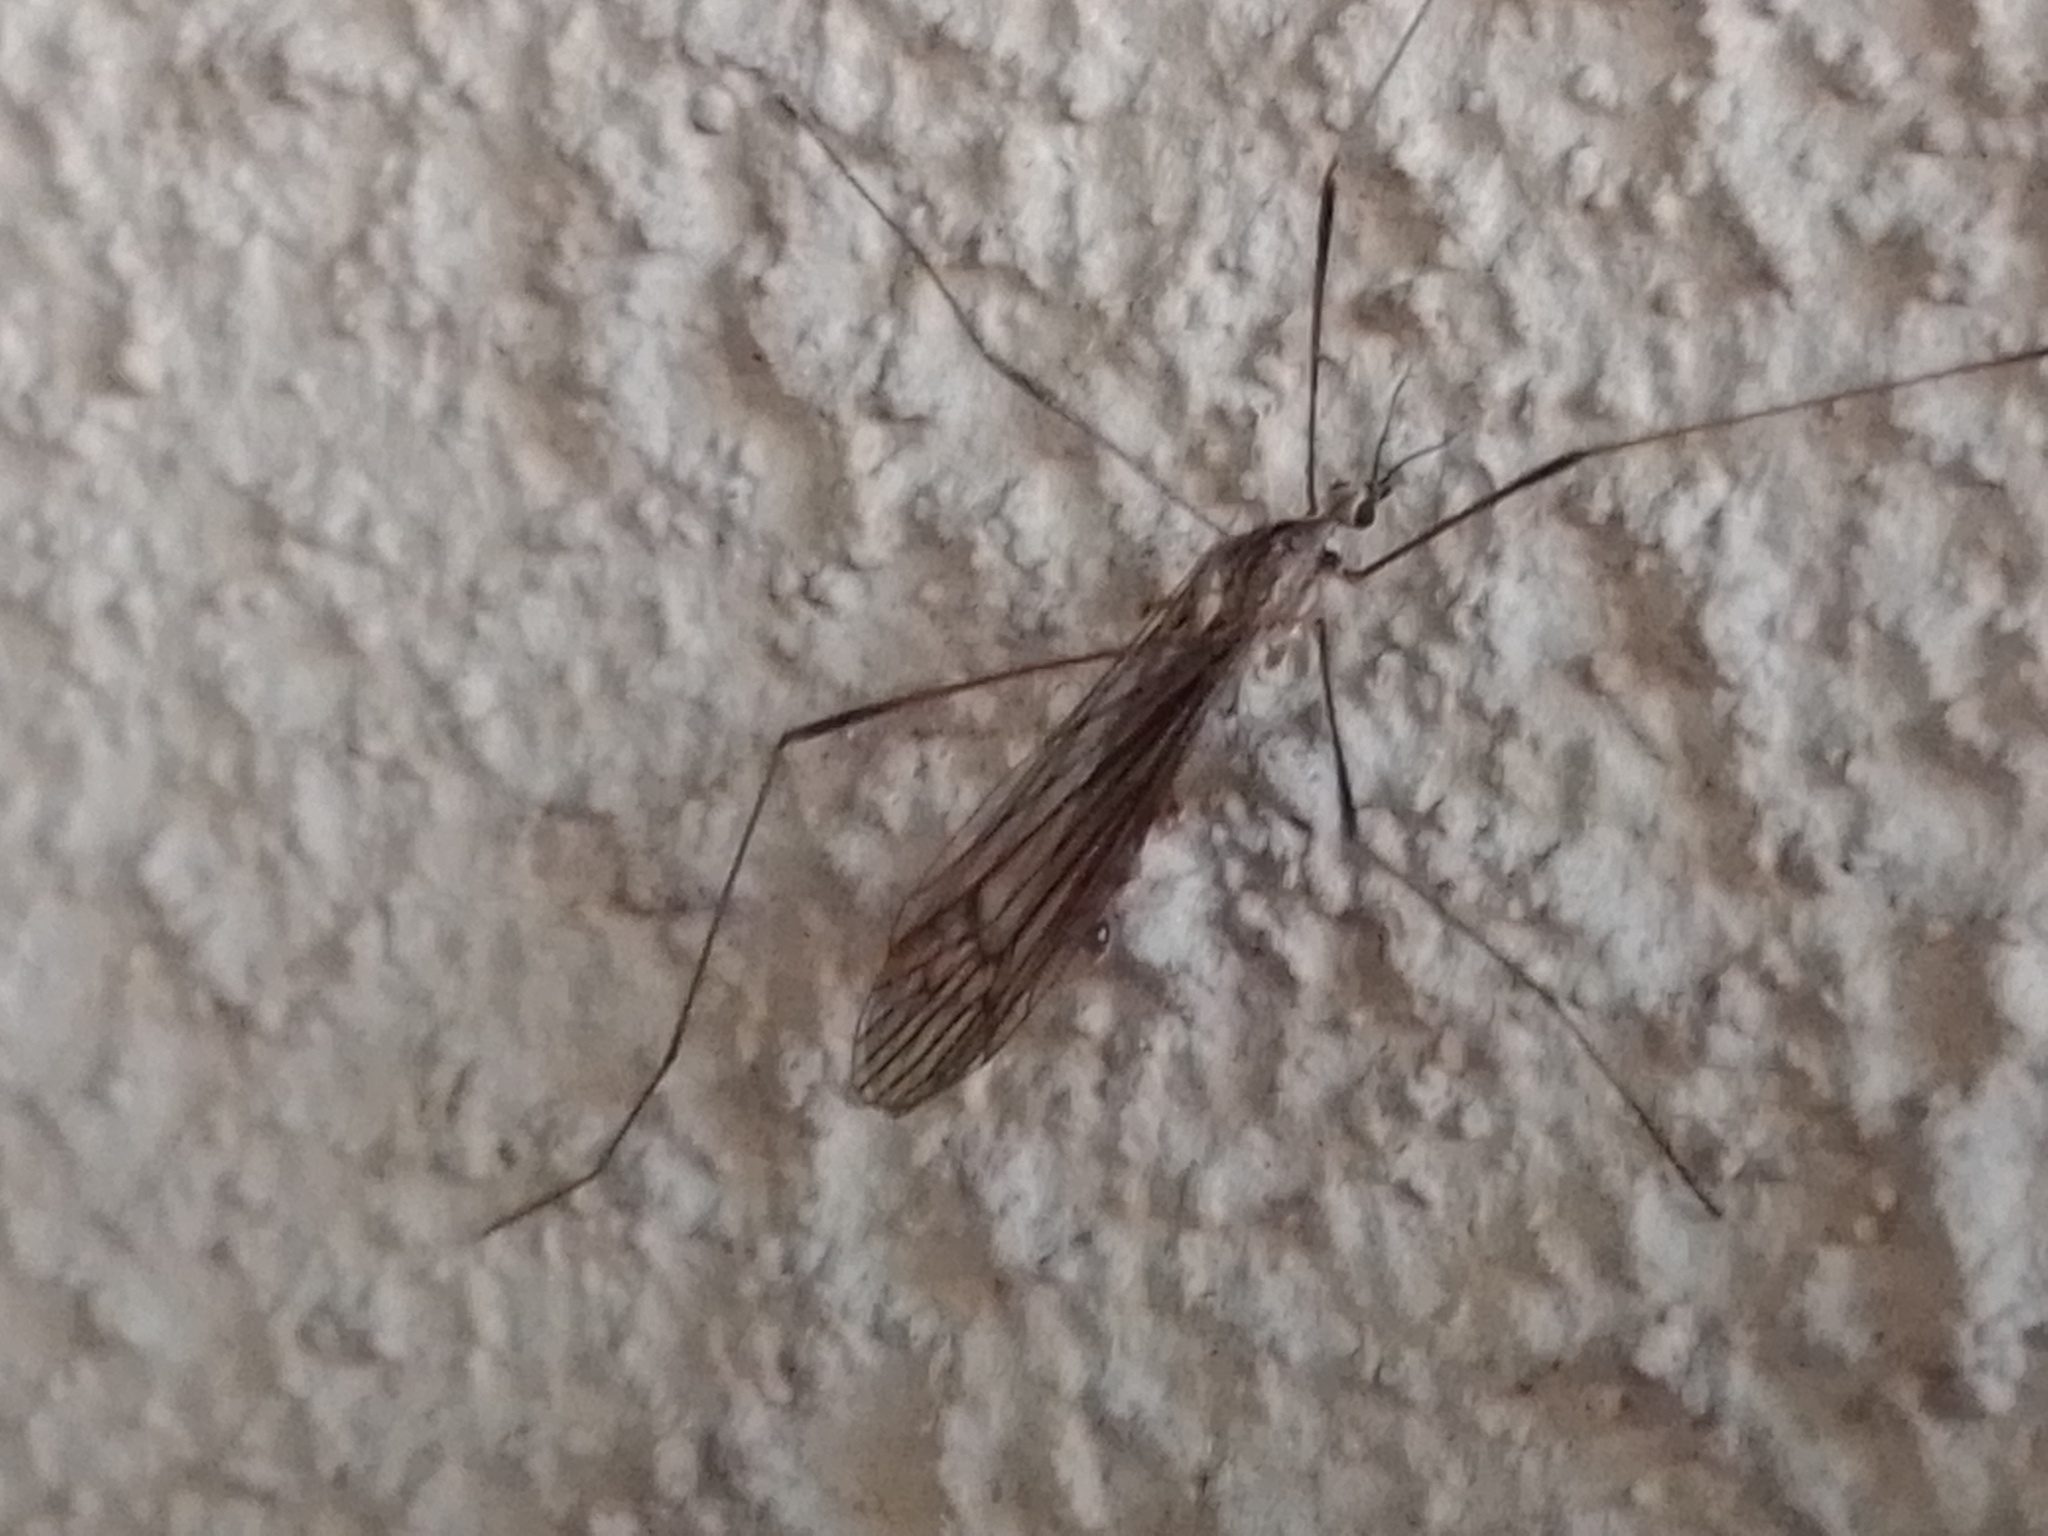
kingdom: Animalia
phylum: Arthropoda
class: Insecta
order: Diptera
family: Limoniidae
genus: Symplecta
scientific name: Symplecta pilipes
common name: Crane fly
